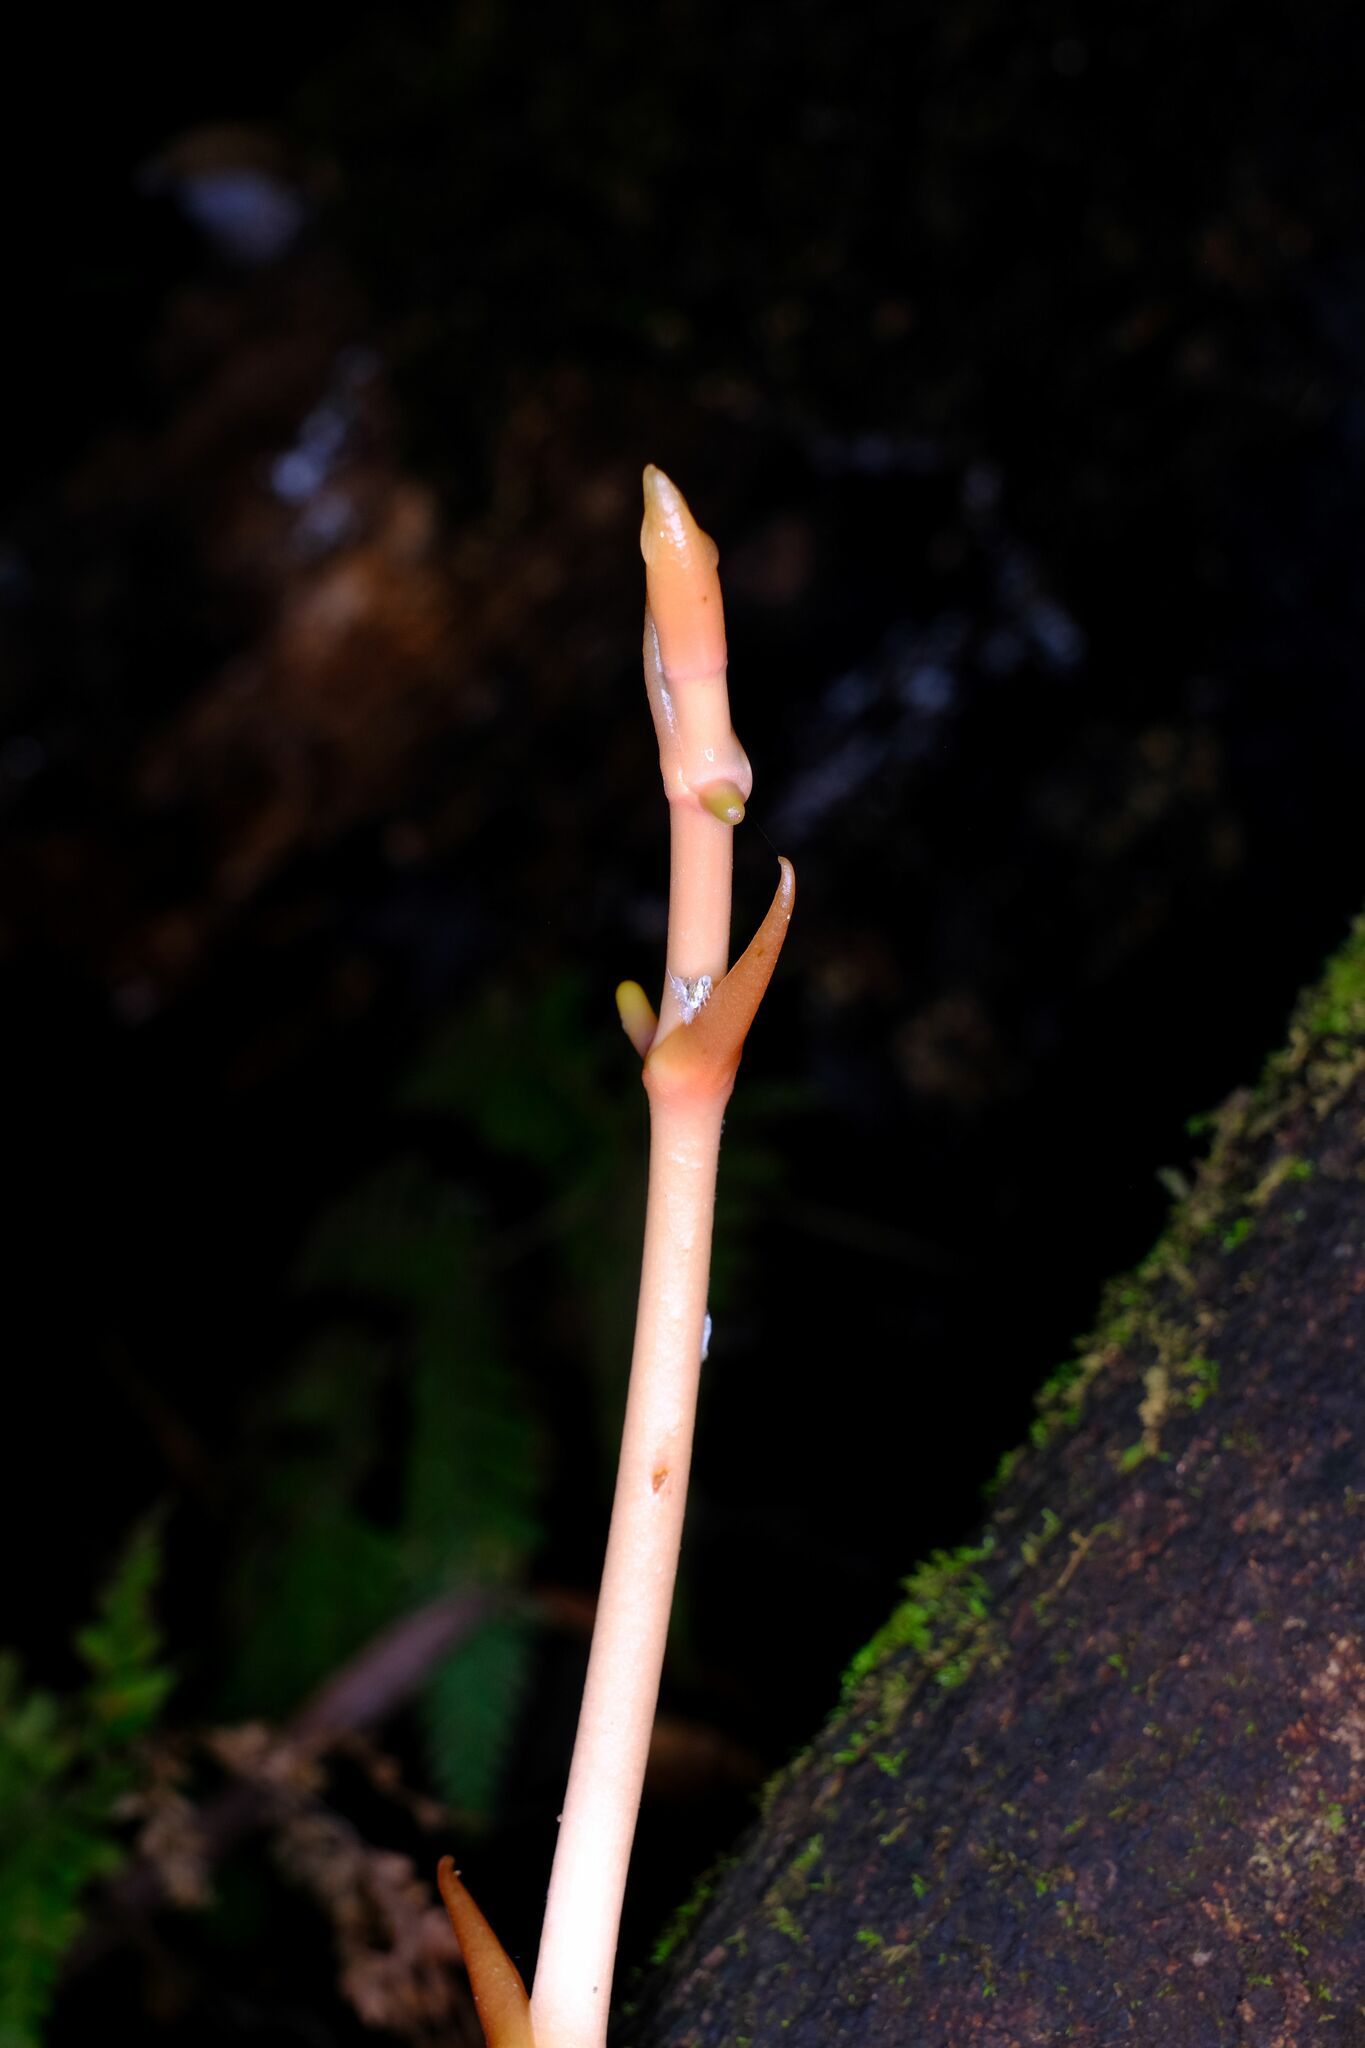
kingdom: Plantae
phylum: Tracheophyta
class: Liliopsida
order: Asparagales
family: Orchidaceae
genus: Pseudovanilla
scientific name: Pseudovanilla foliata
